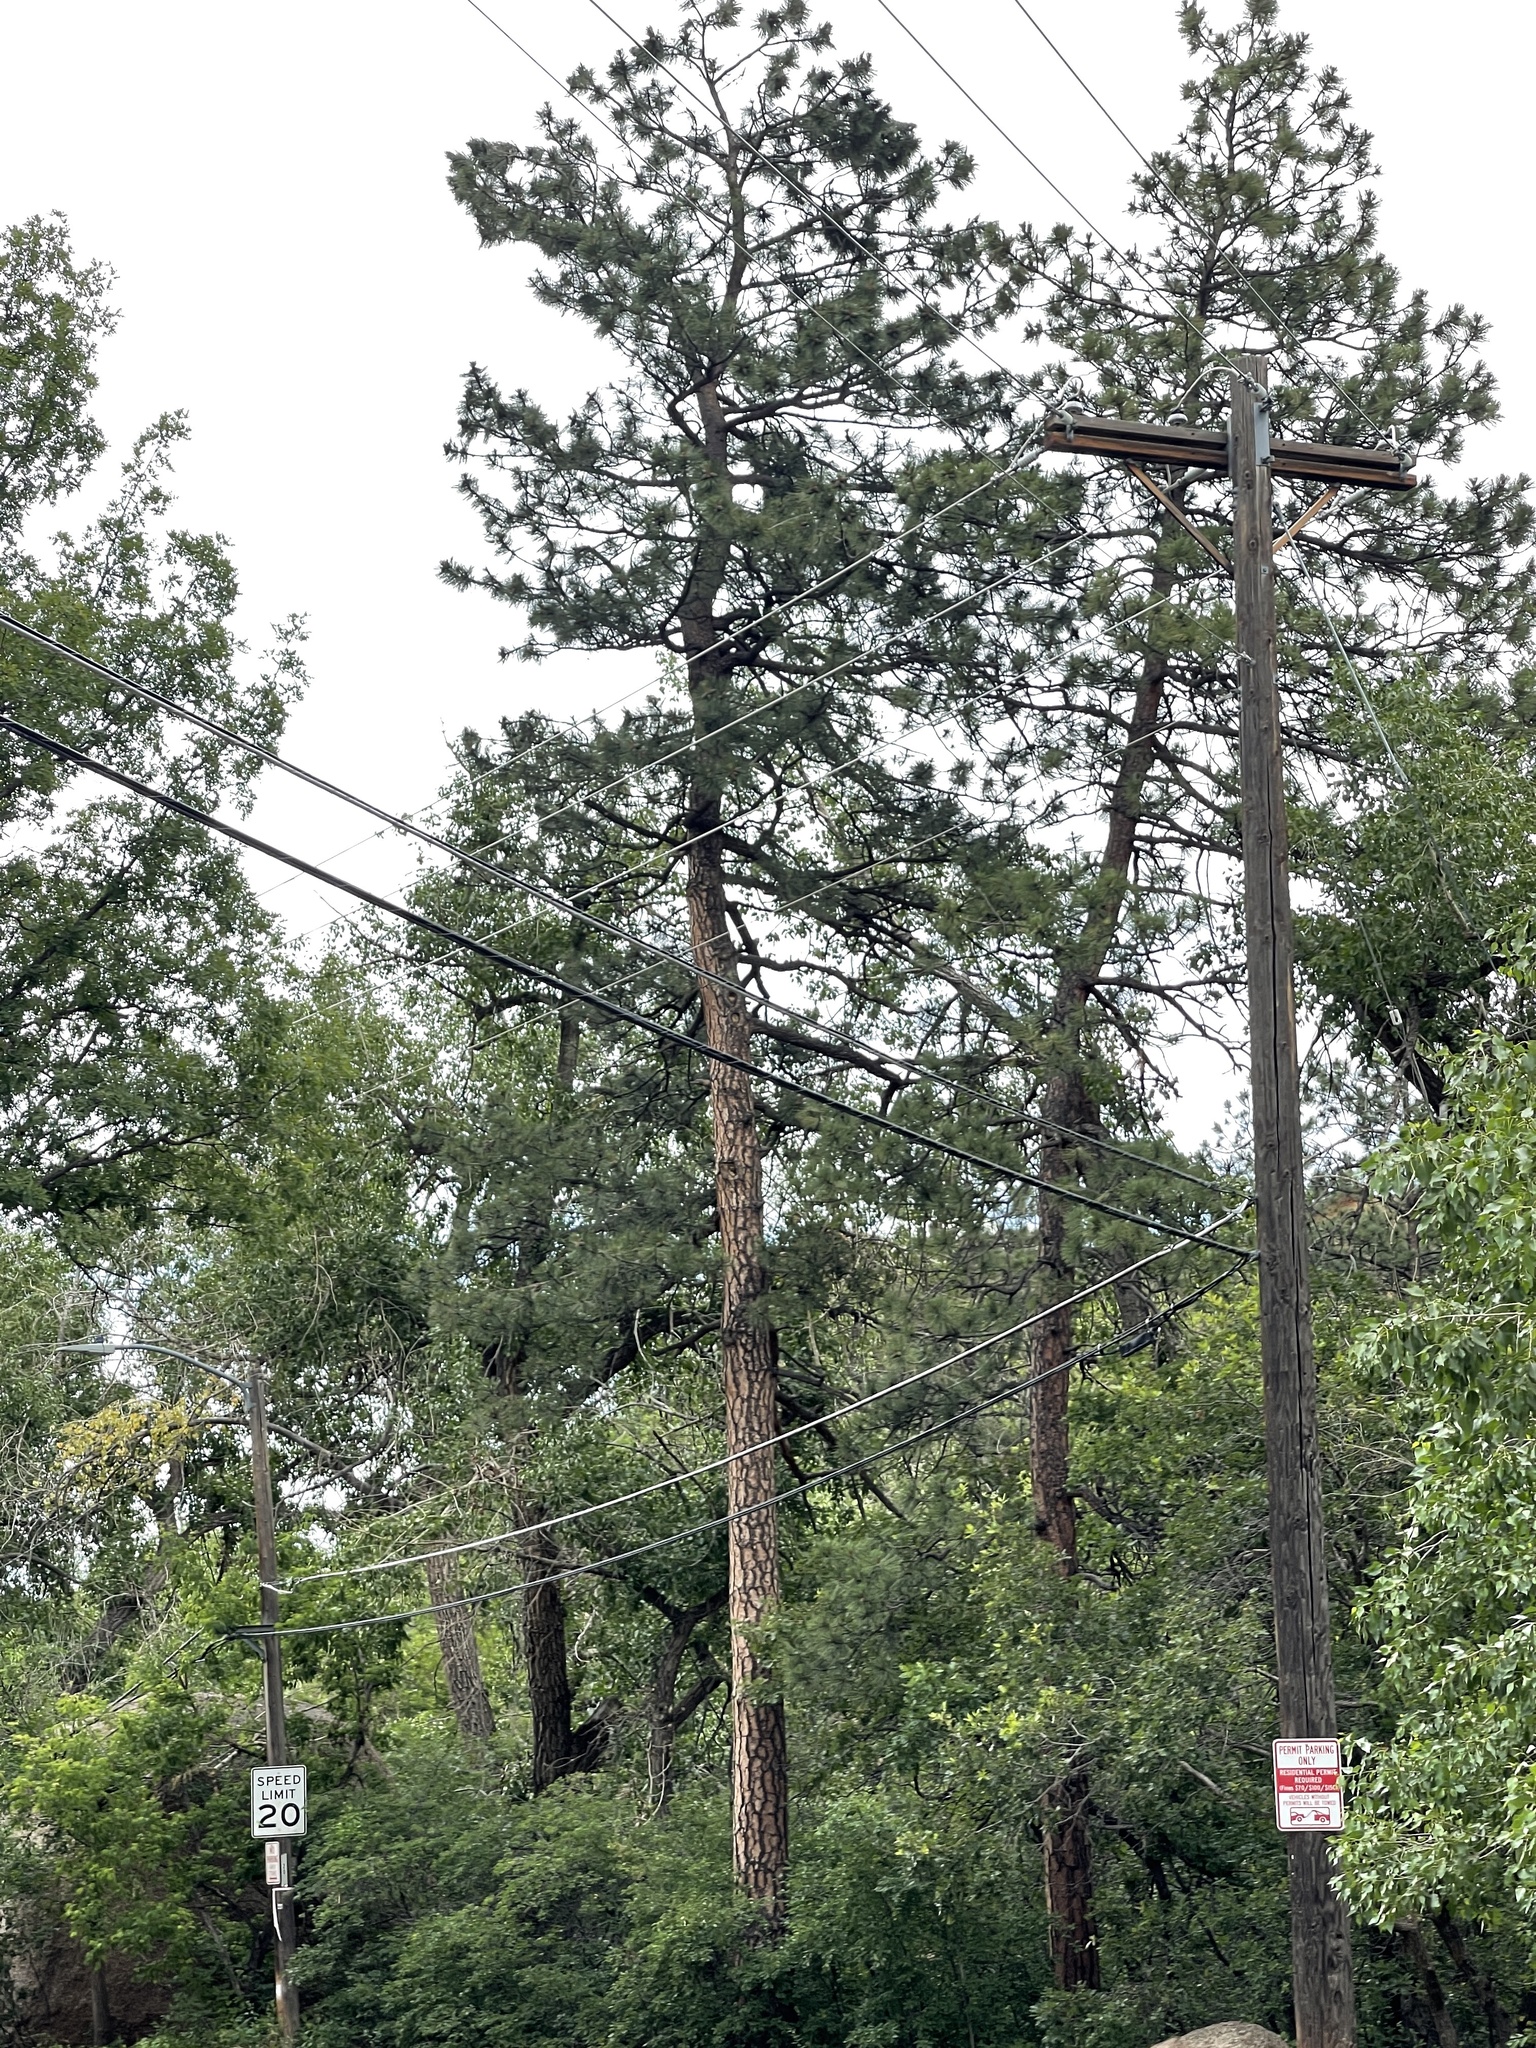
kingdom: Plantae
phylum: Tracheophyta
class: Pinopsida
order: Pinales
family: Pinaceae
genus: Pinus
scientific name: Pinus ponderosa
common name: Western yellow-pine
